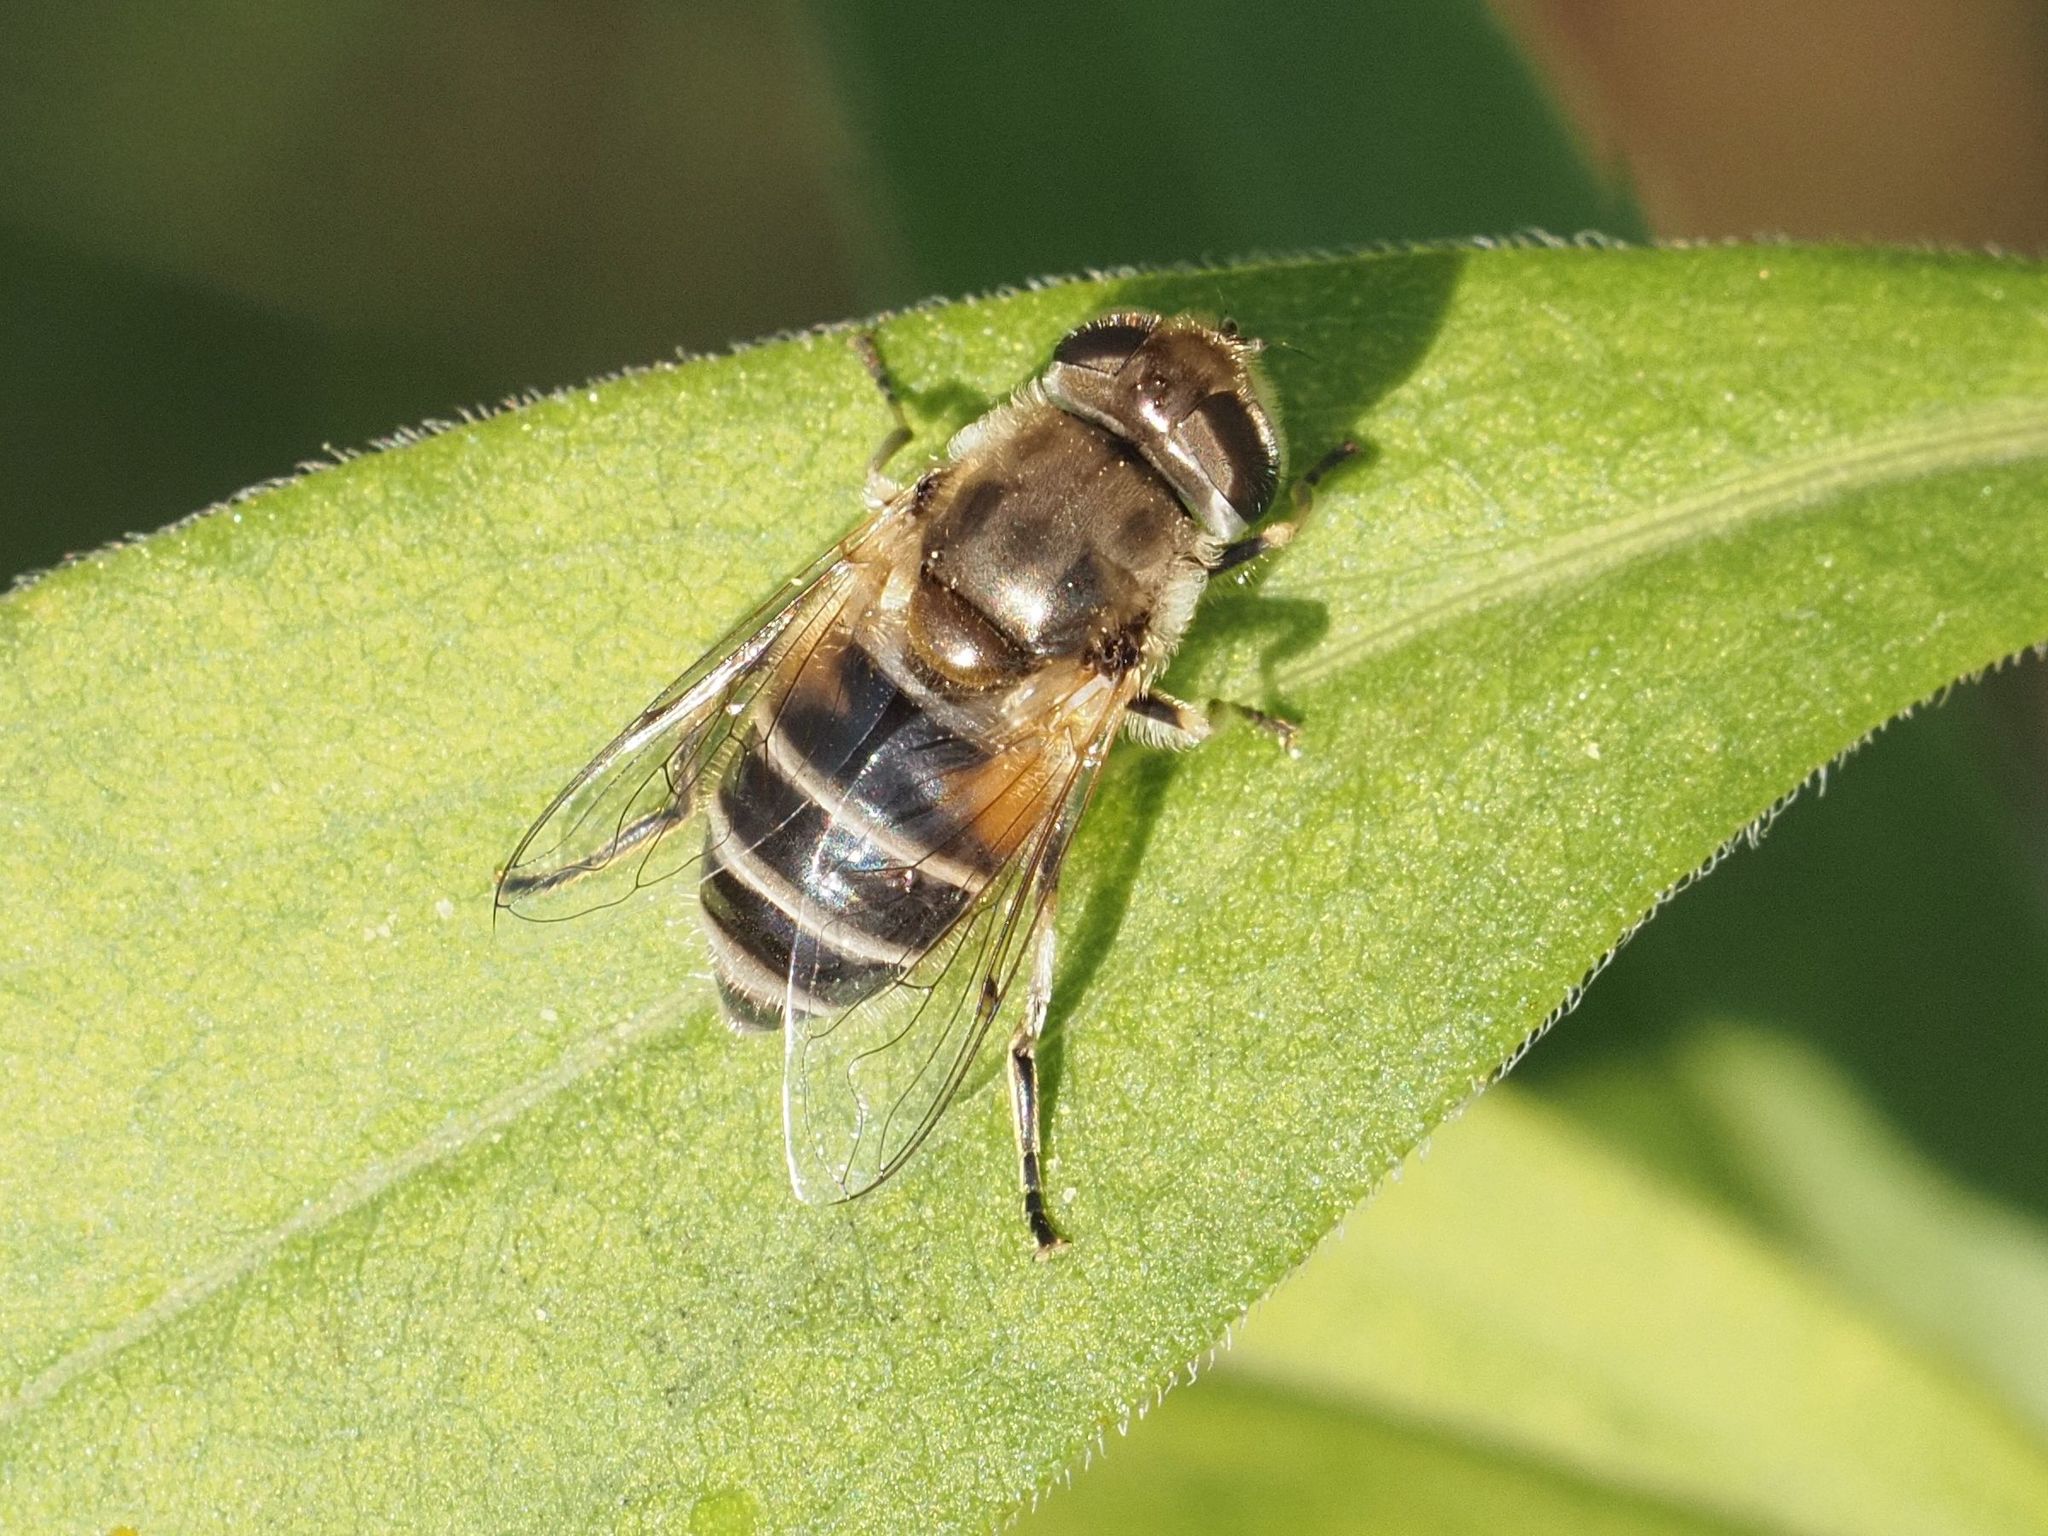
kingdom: Animalia
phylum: Arthropoda
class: Insecta
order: Diptera
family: Syrphidae
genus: Eristalis
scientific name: Eristalis arbustorum
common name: Hover fly
